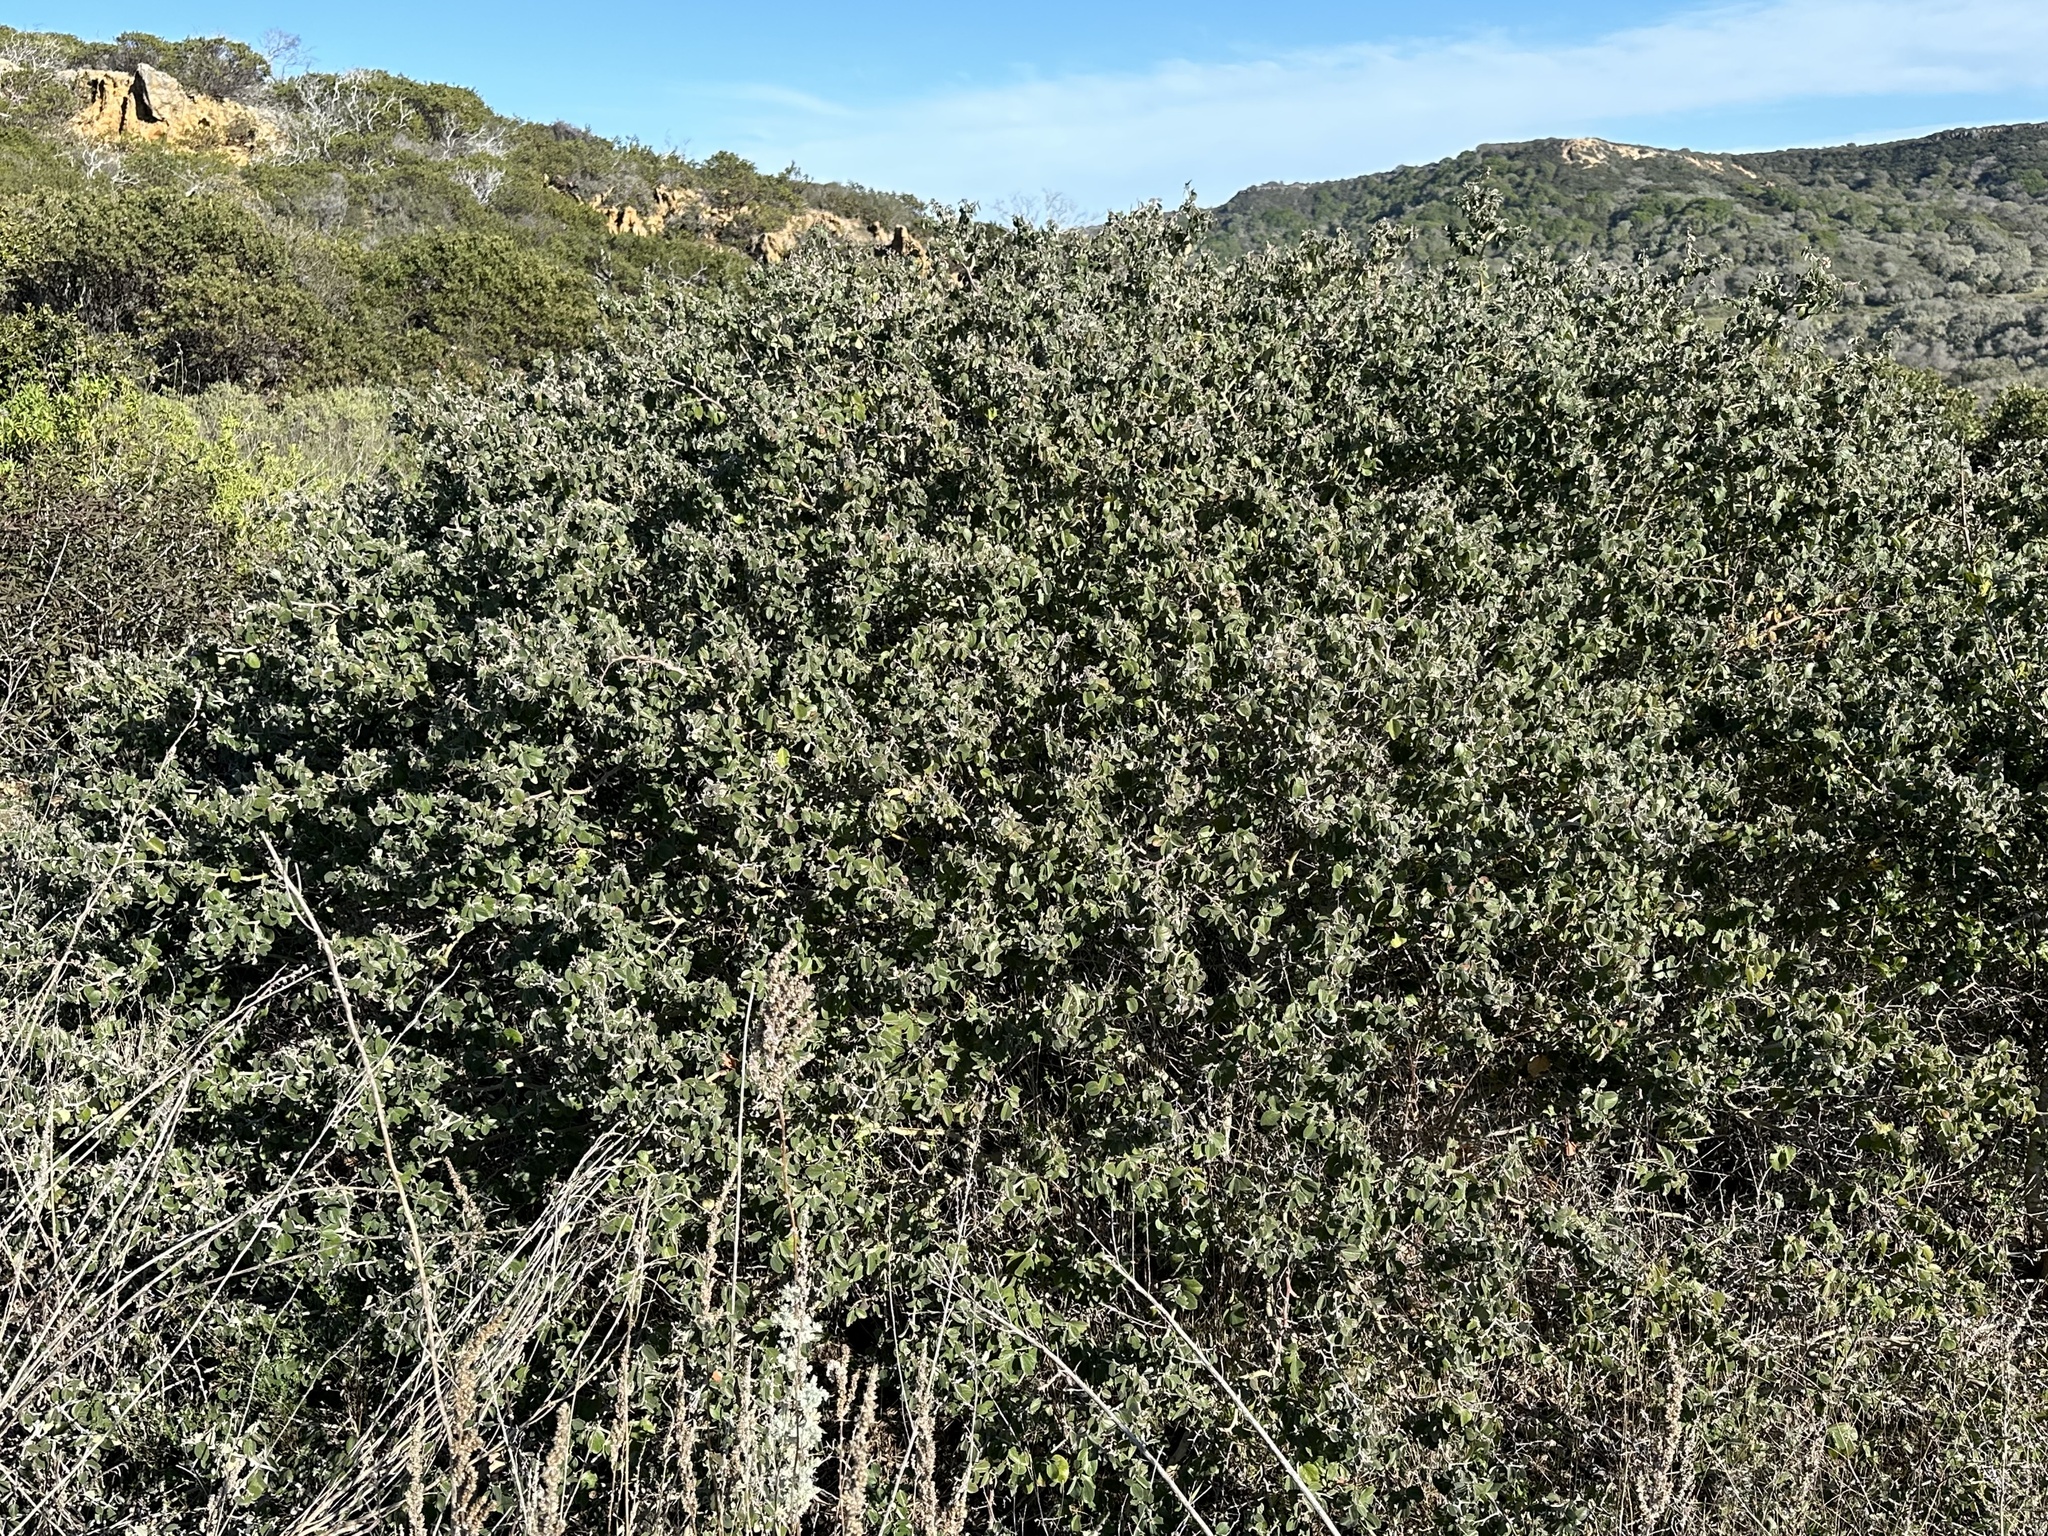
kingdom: Plantae
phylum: Tracheophyta
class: Magnoliopsida
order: Rosales
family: Rhamnaceae
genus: Ceanothus
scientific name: Ceanothus incanus
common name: Coast whitethorn
